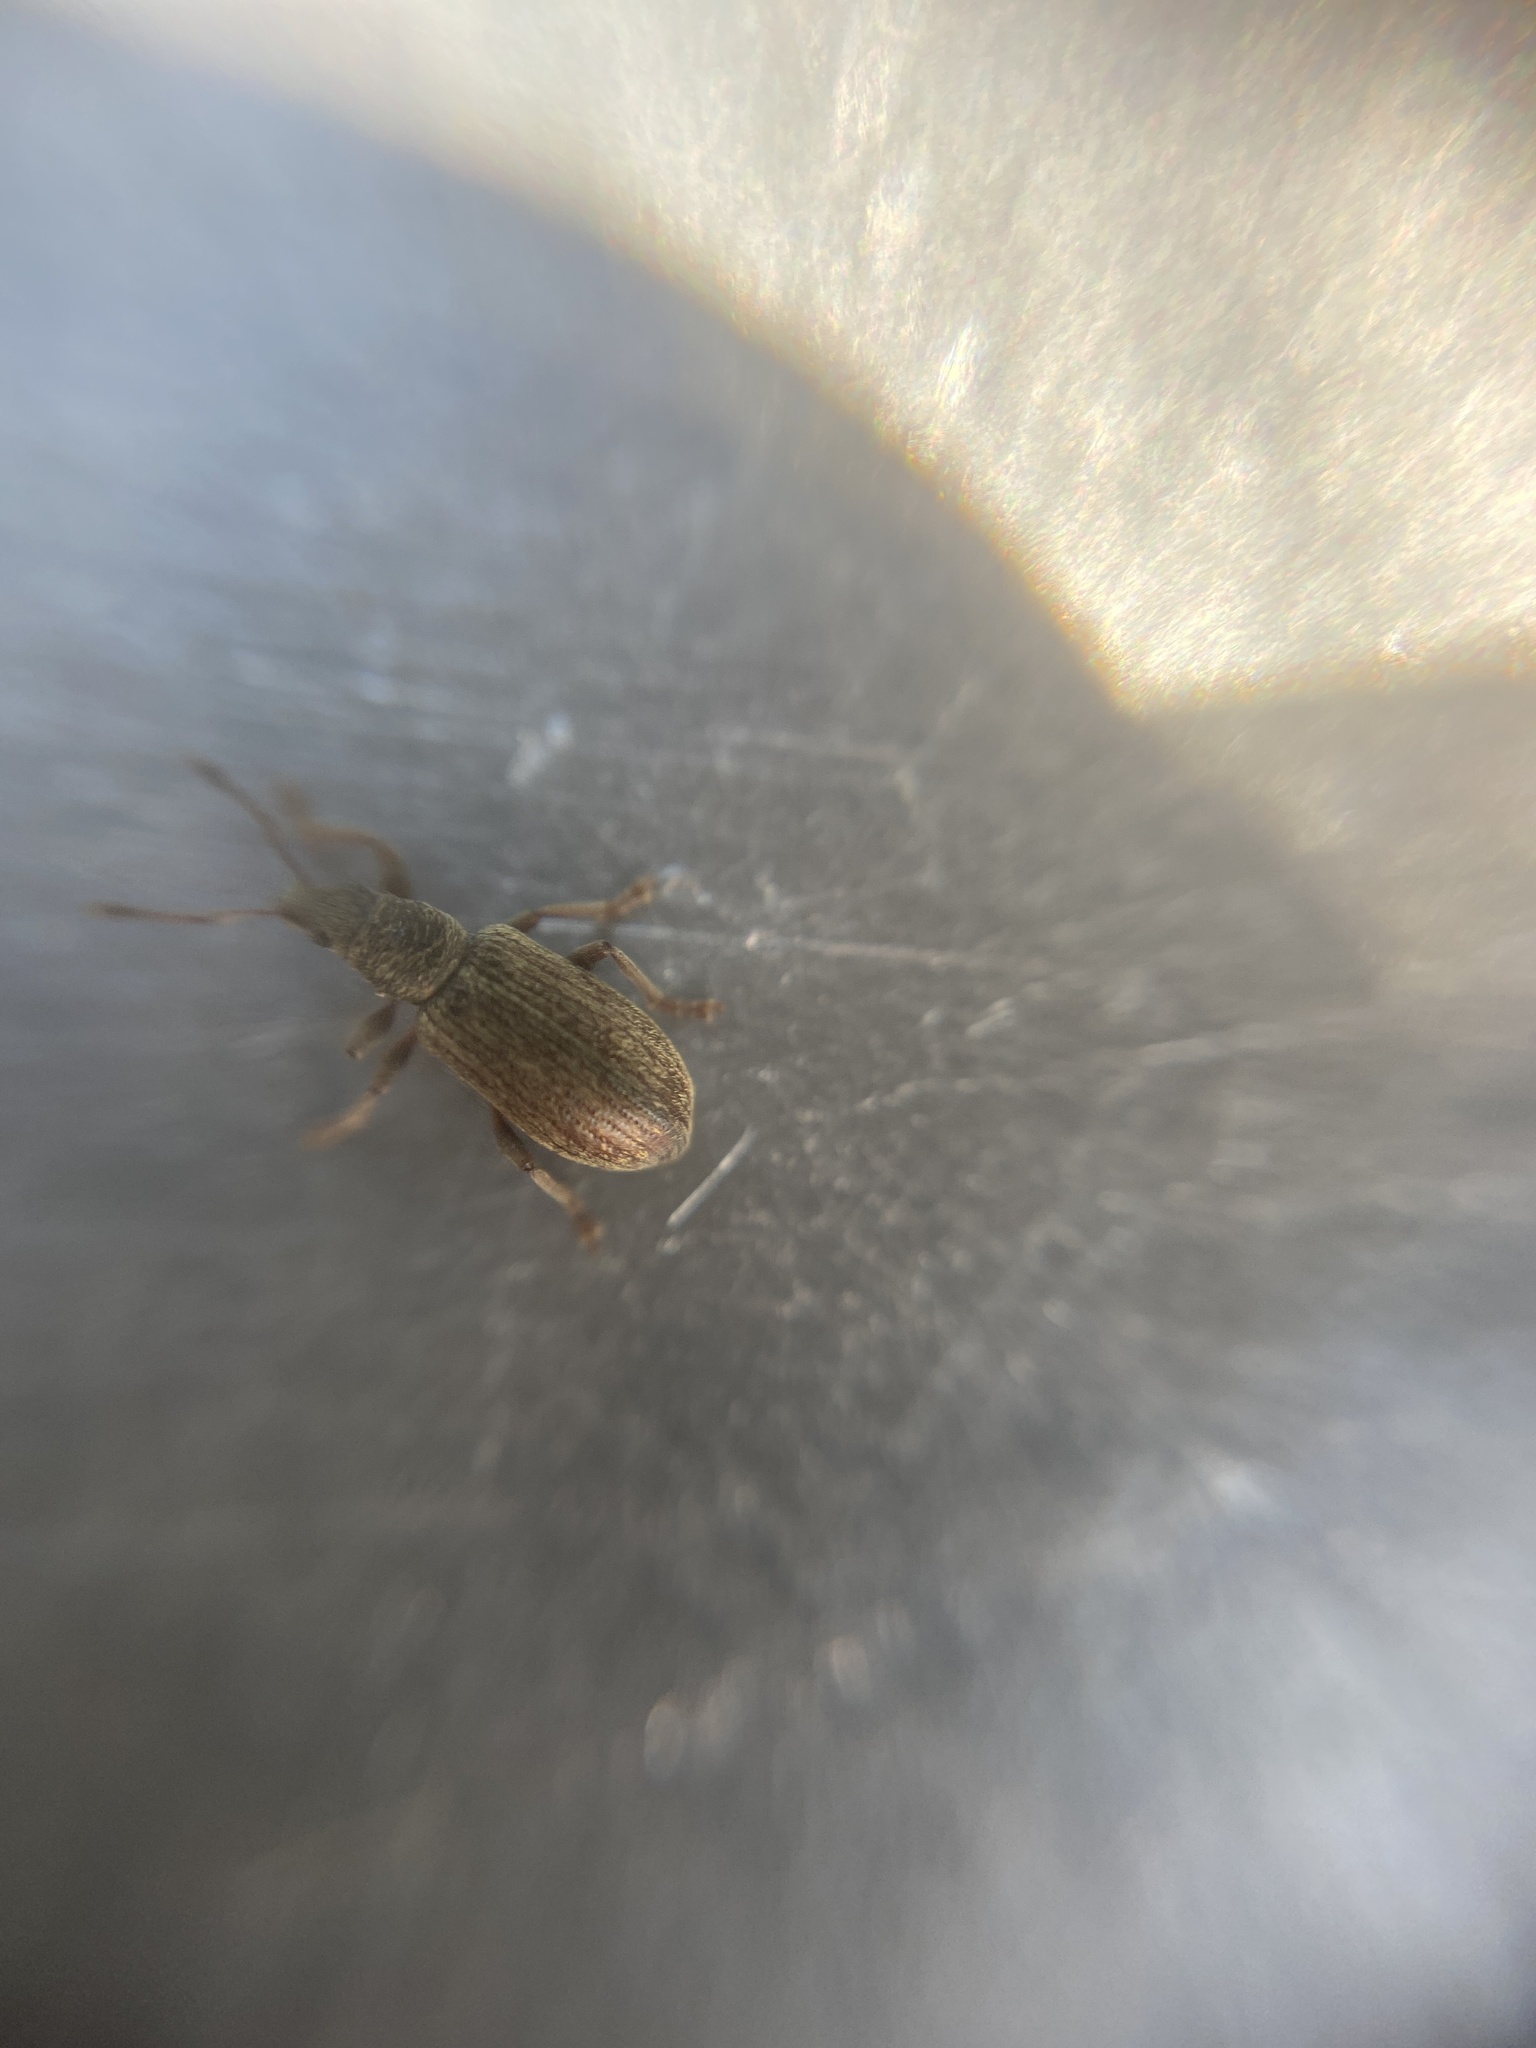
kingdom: Animalia
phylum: Arthropoda
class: Insecta
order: Coleoptera
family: Curculionidae
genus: Polydrusus
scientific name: Polydrusus aeratus
